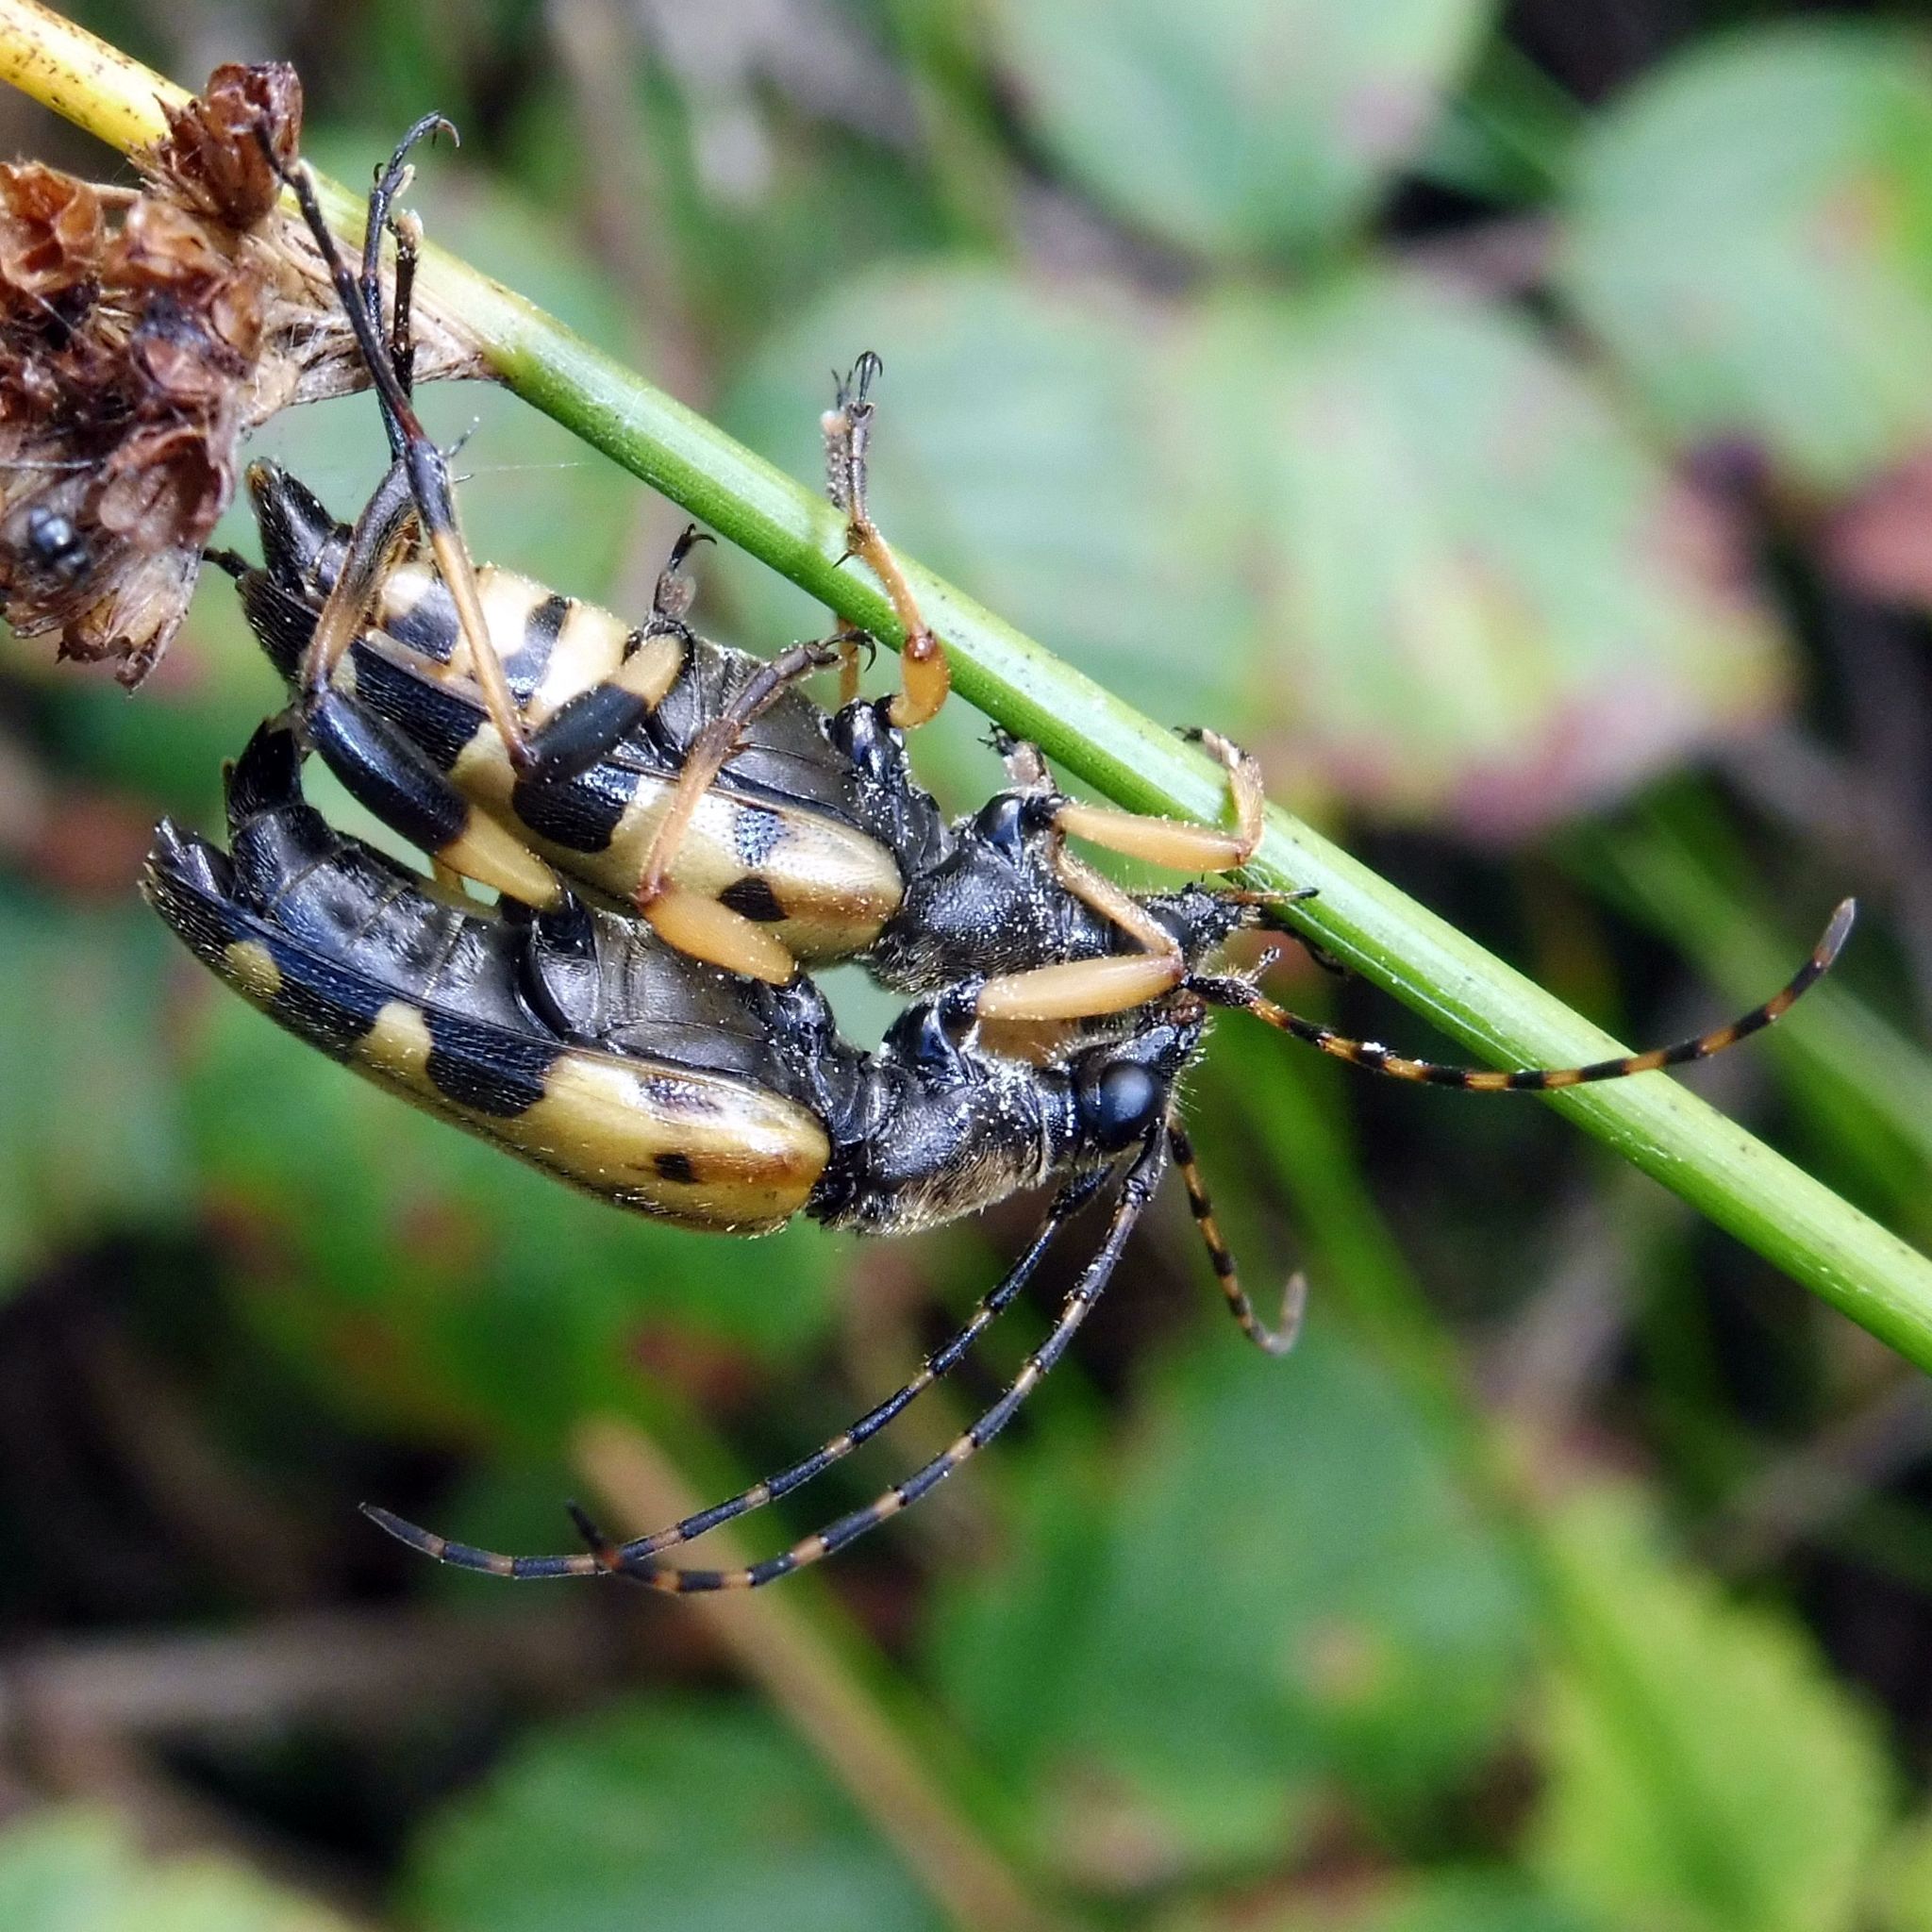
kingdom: Animalia
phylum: Arthropoda
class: Insecta
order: Coleoptera
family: Cerambycidae
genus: Rutpela
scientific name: Rutpela maculata
